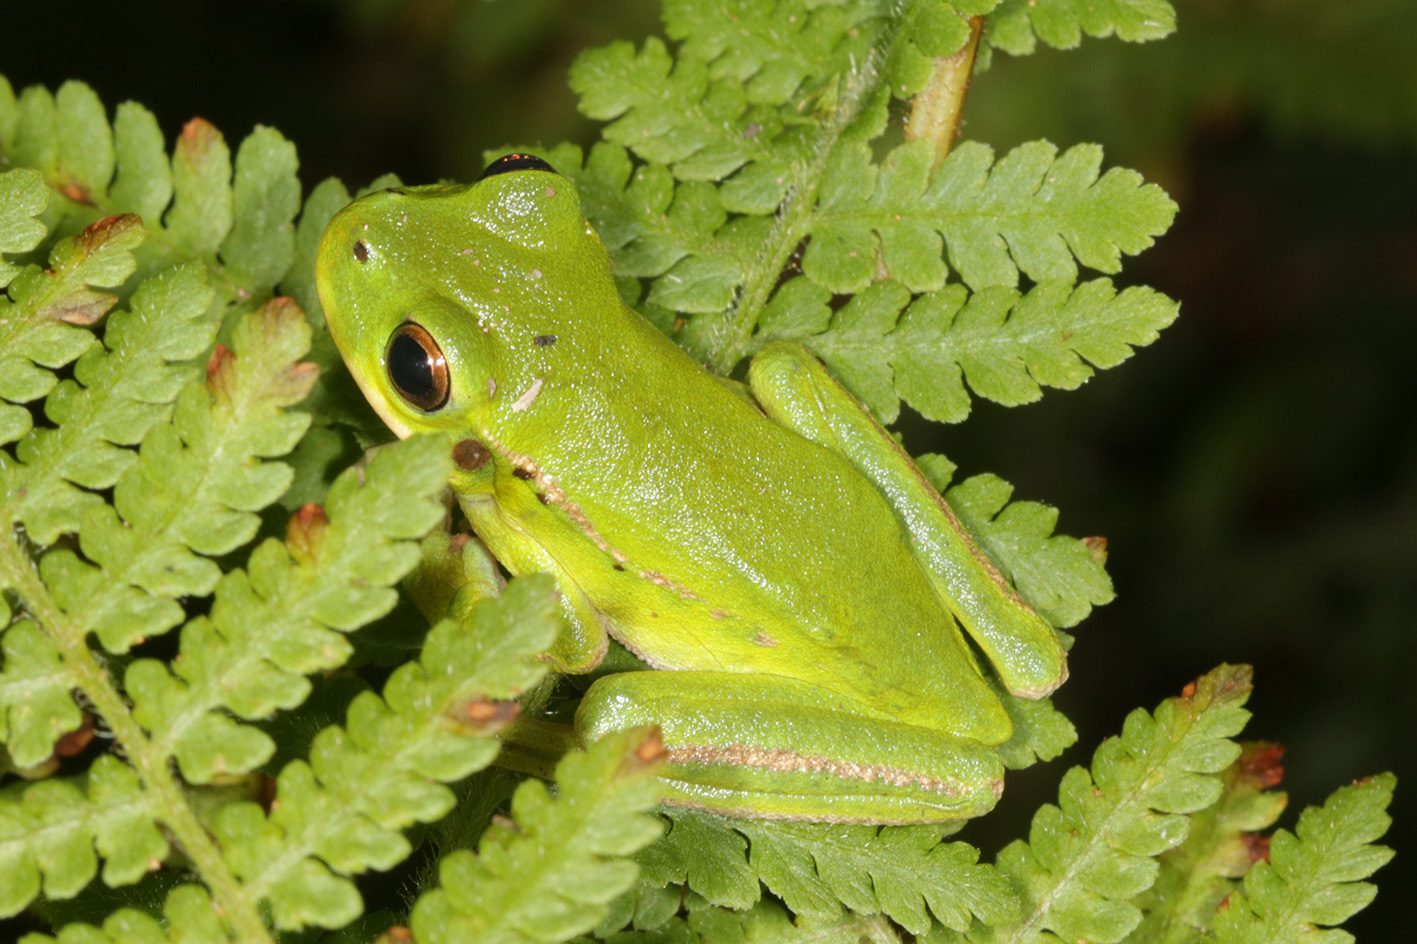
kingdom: Animalia
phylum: Chordata
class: Amphibia
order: Anura
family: Hylidae
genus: Boana
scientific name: Boana riojana
